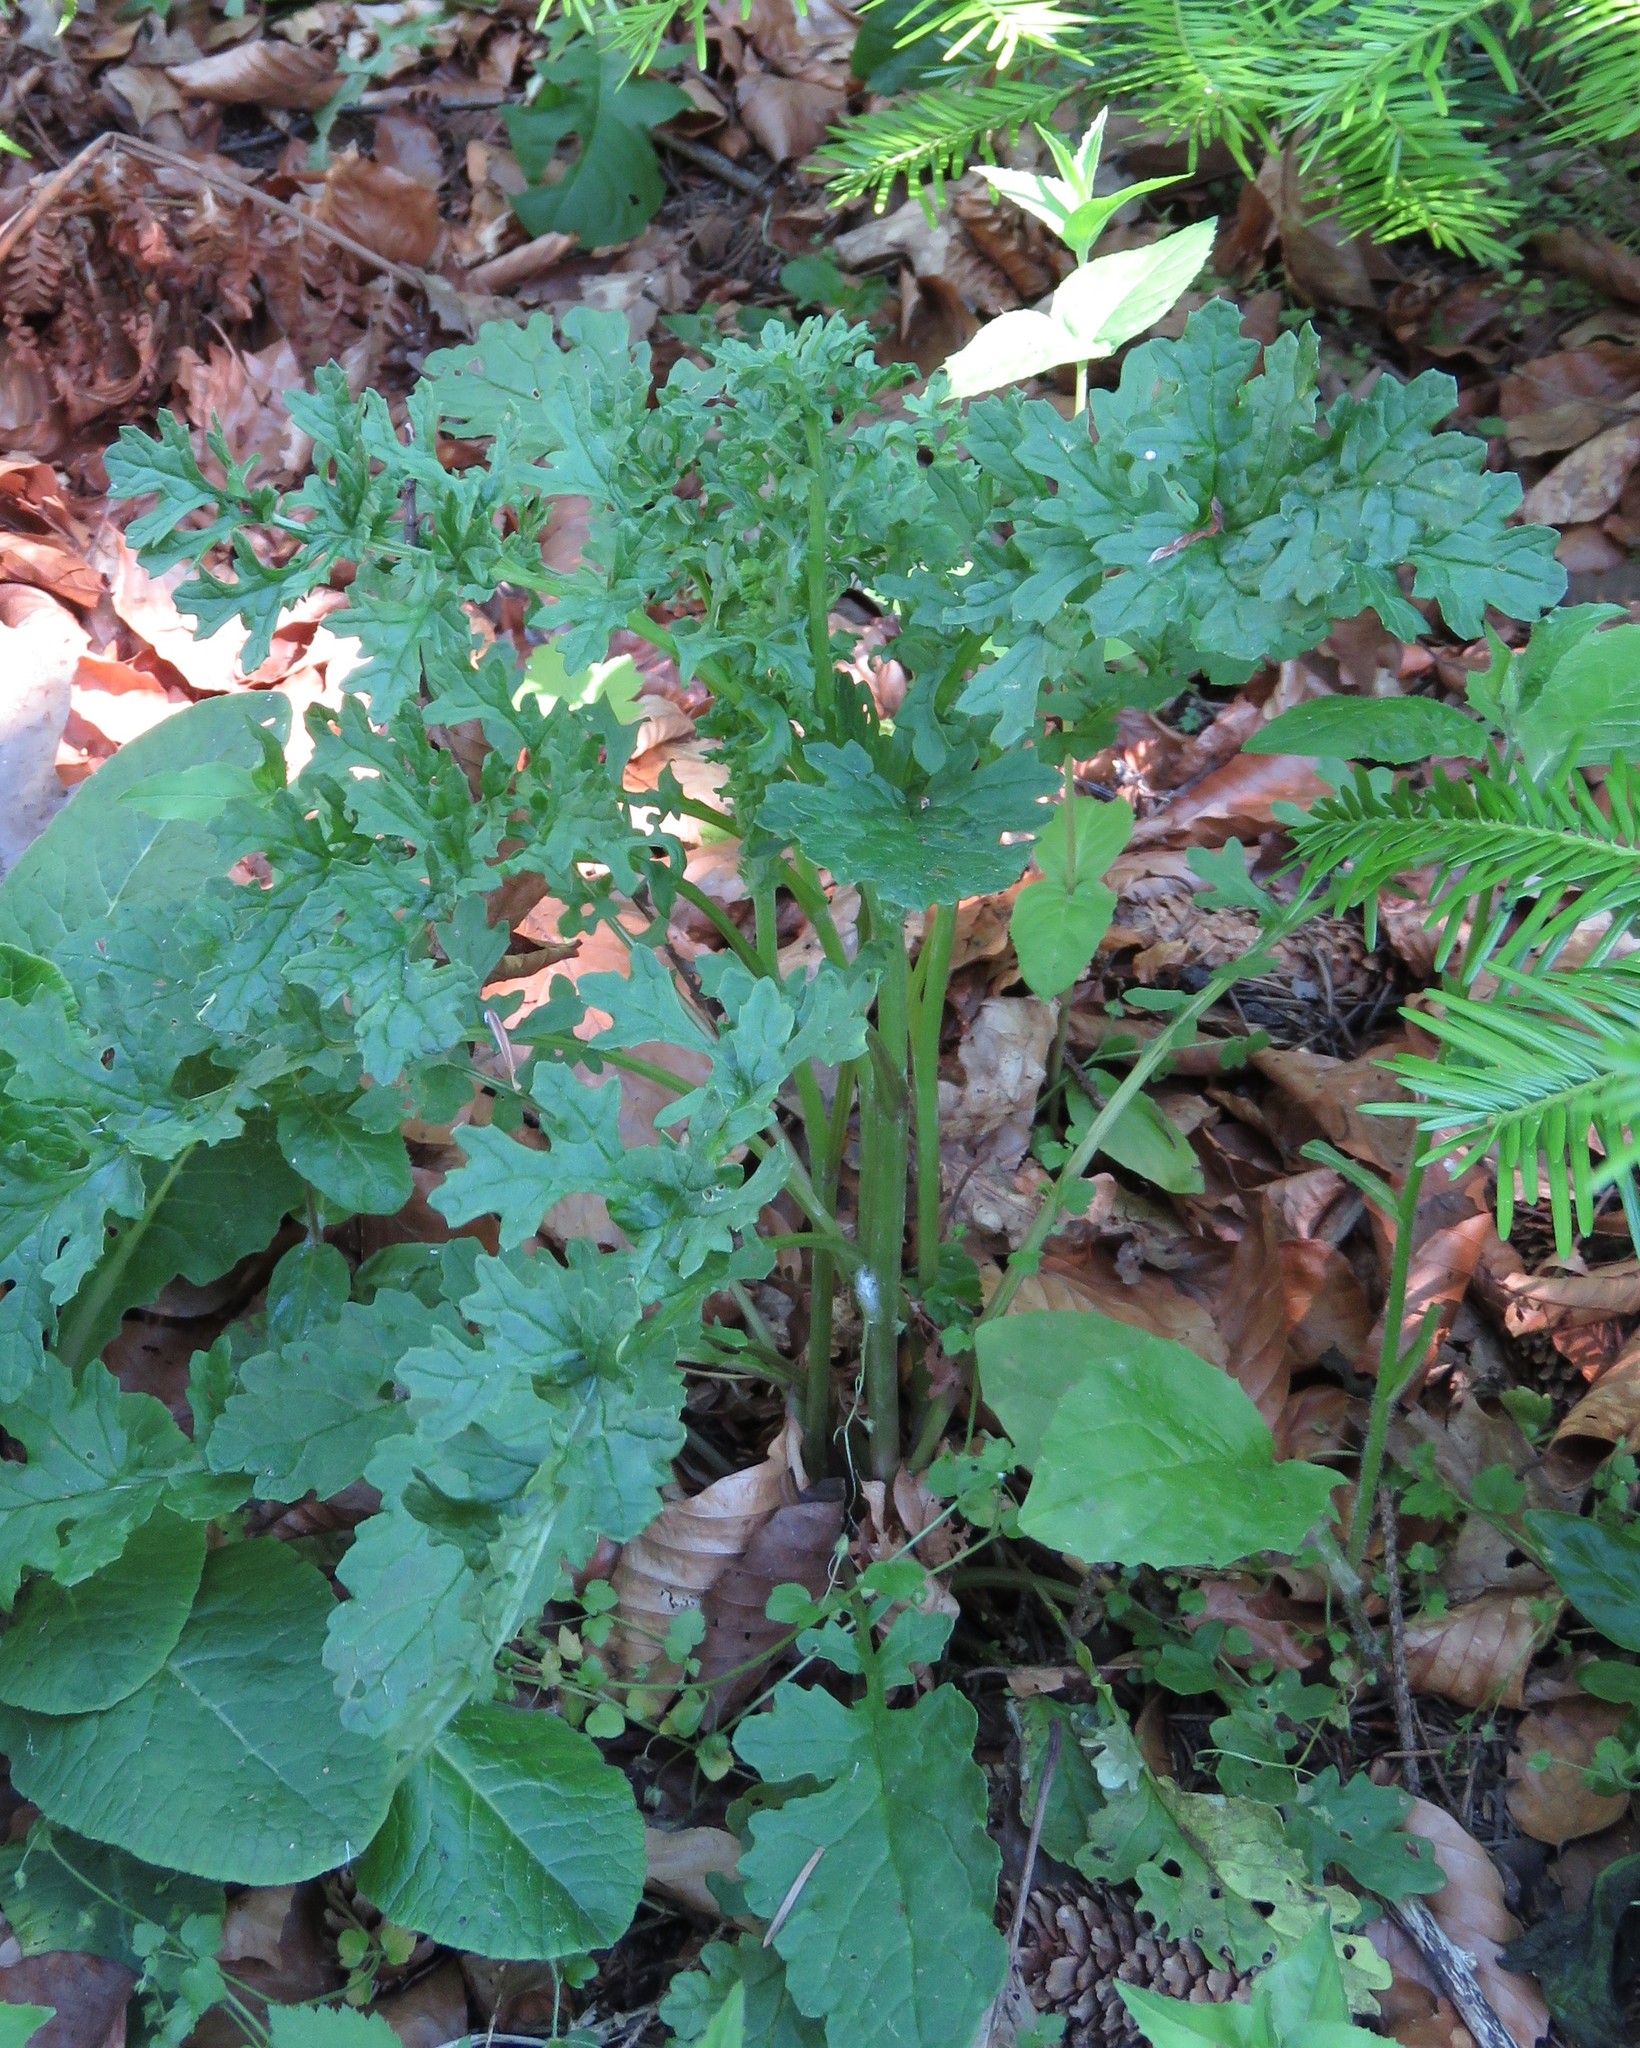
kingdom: Plantae
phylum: Tracheophyta
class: Magnoliopsida
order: Asterales
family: Asteraceae
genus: Jacobaea
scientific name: Jacobaea vulgaris
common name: Stinking willie
